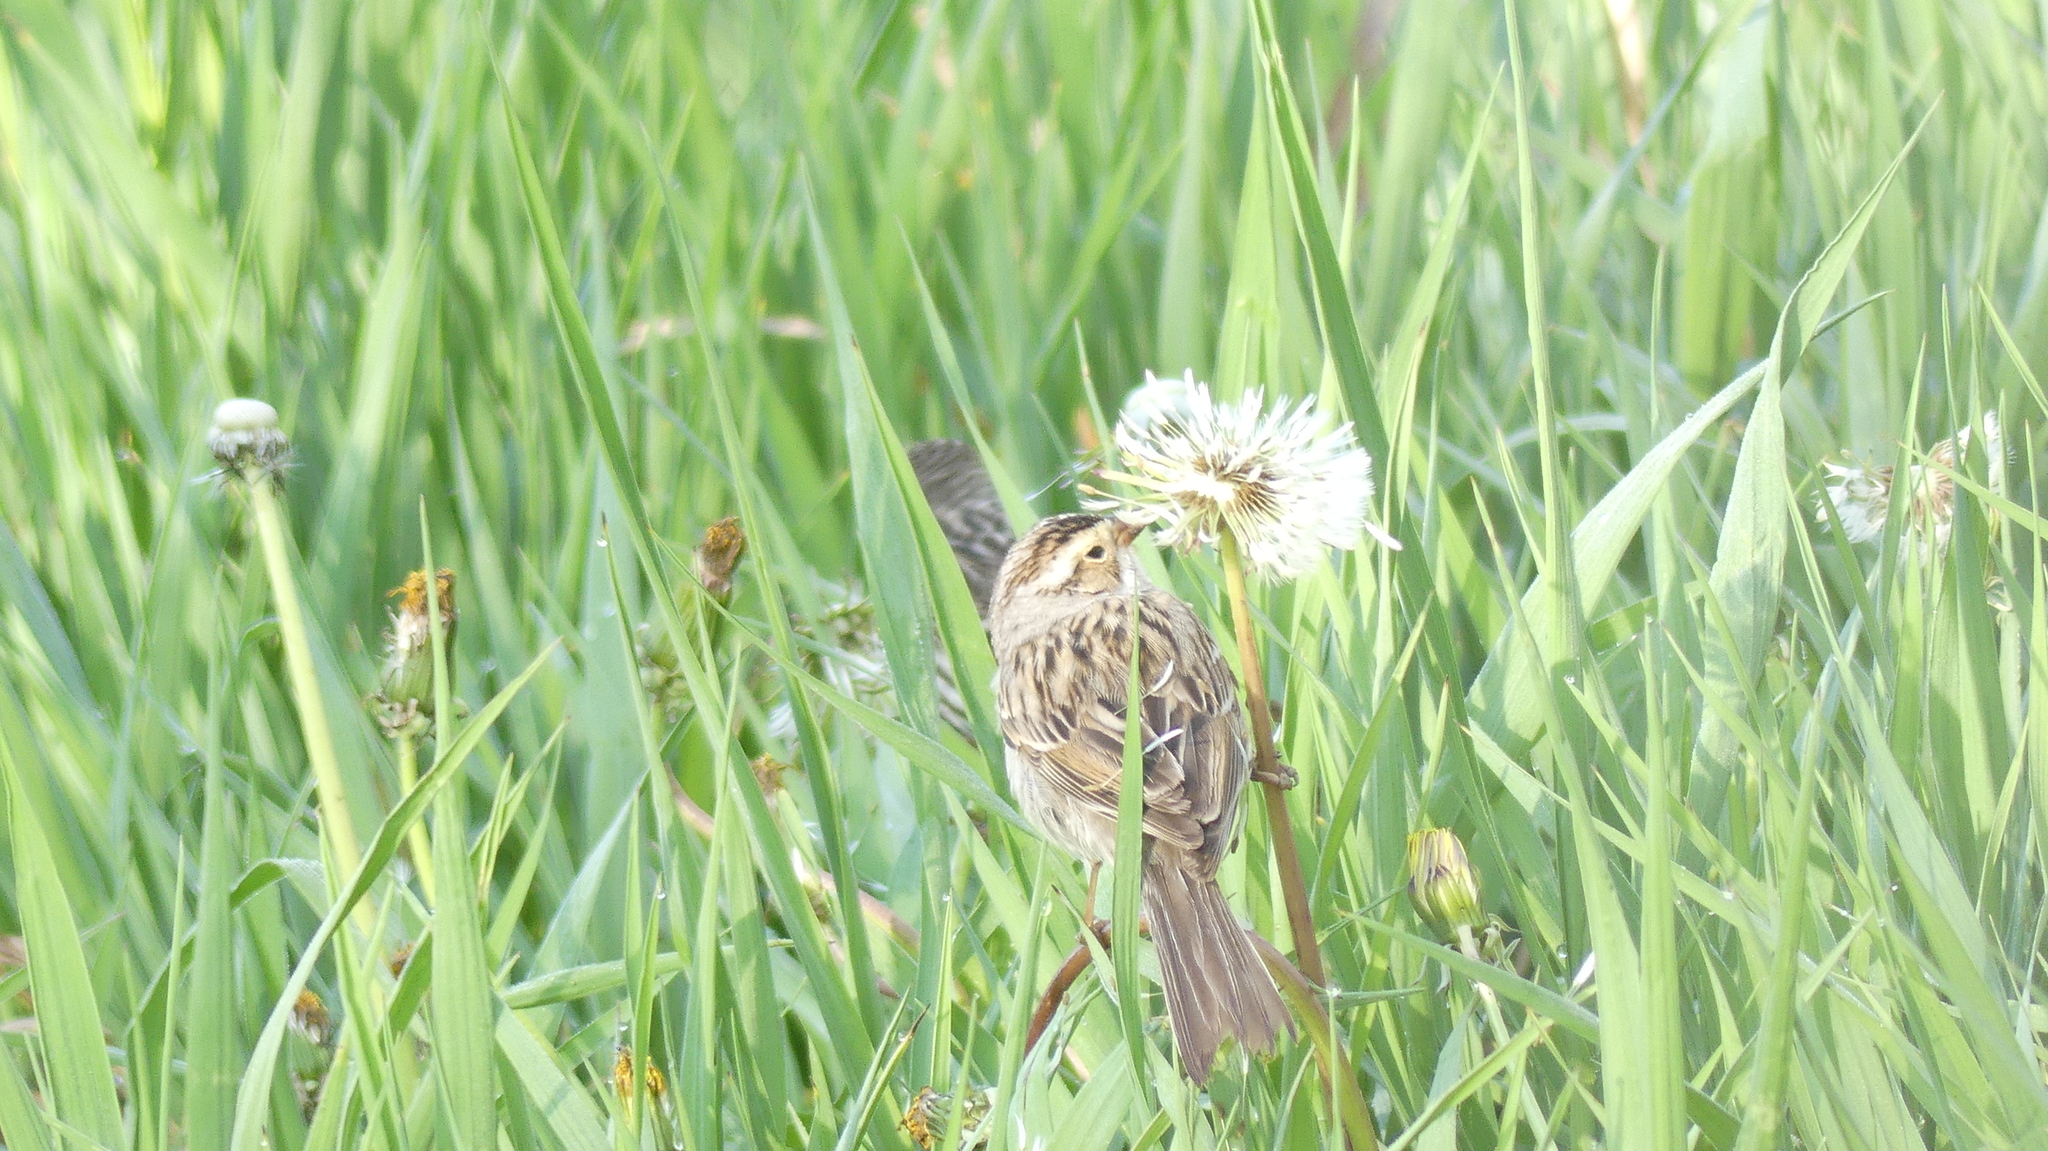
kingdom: Animalia
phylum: Chordata
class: Aves
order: Passeriformes
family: Passerellidae
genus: Spizella
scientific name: Spizella pallida
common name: Clay-colored sparrow
